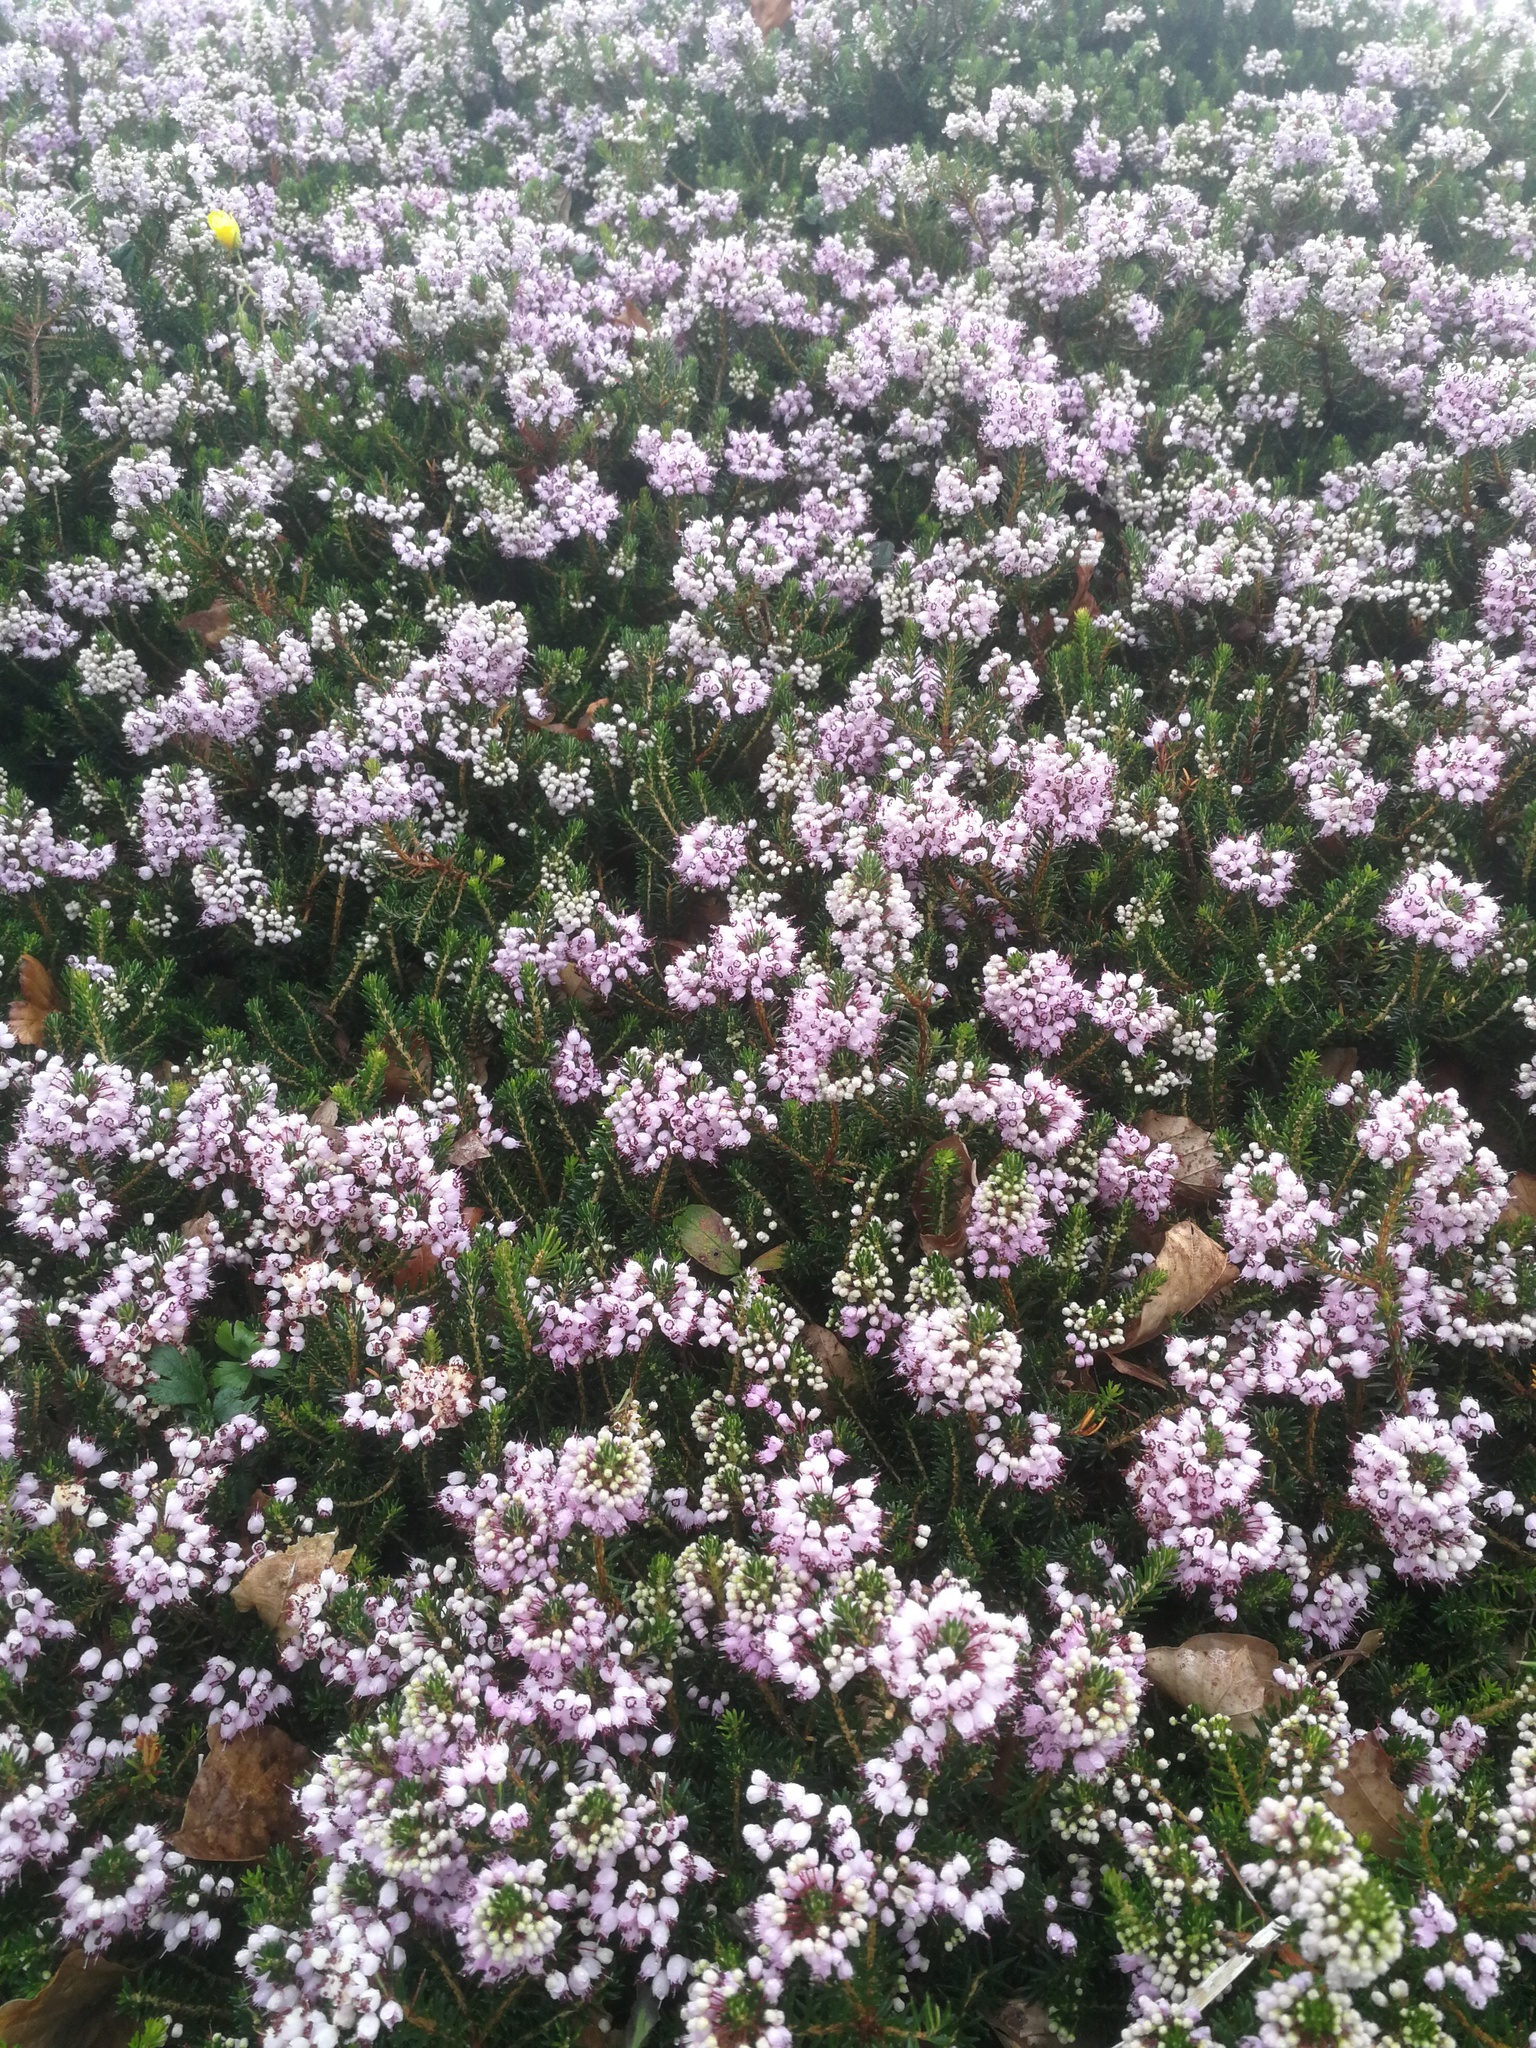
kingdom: Plantae
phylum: Tracheophyta
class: Magnoliopsida
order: Ericales
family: Ericaceae
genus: Erica
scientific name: Erica vagans
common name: Cornish heath
